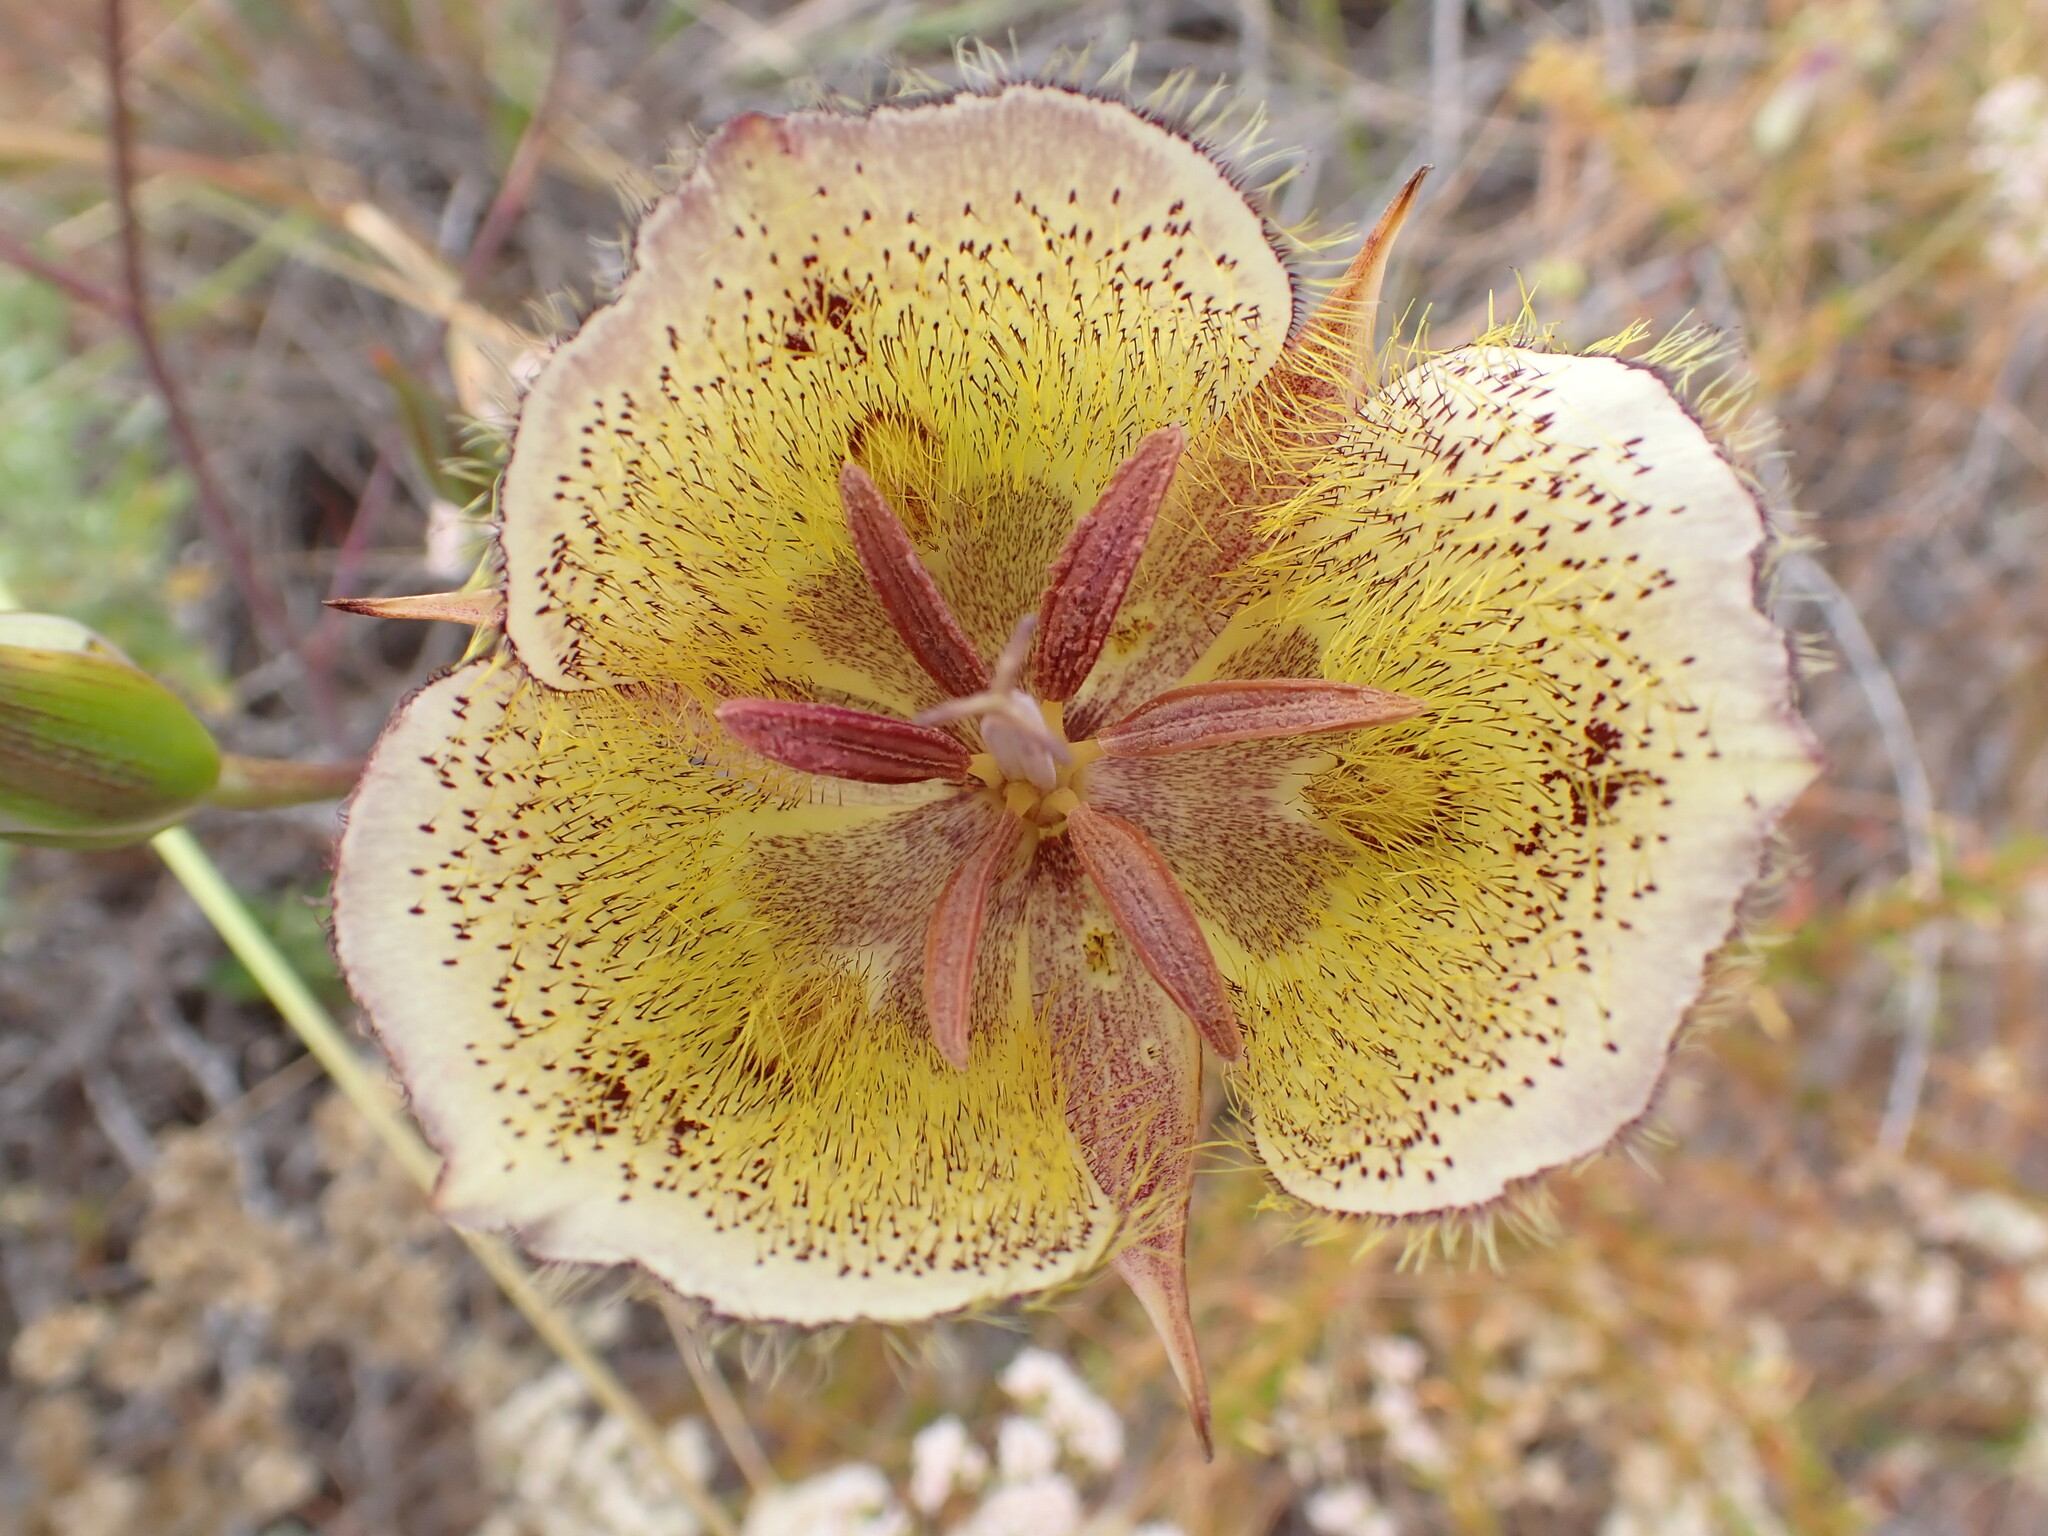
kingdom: Plantae
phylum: Tracheophyta
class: Liliopsida
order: Liliales
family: Liliaceae
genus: Calochortus
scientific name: Calochortus weedii
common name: Weed's mariposa-lily
